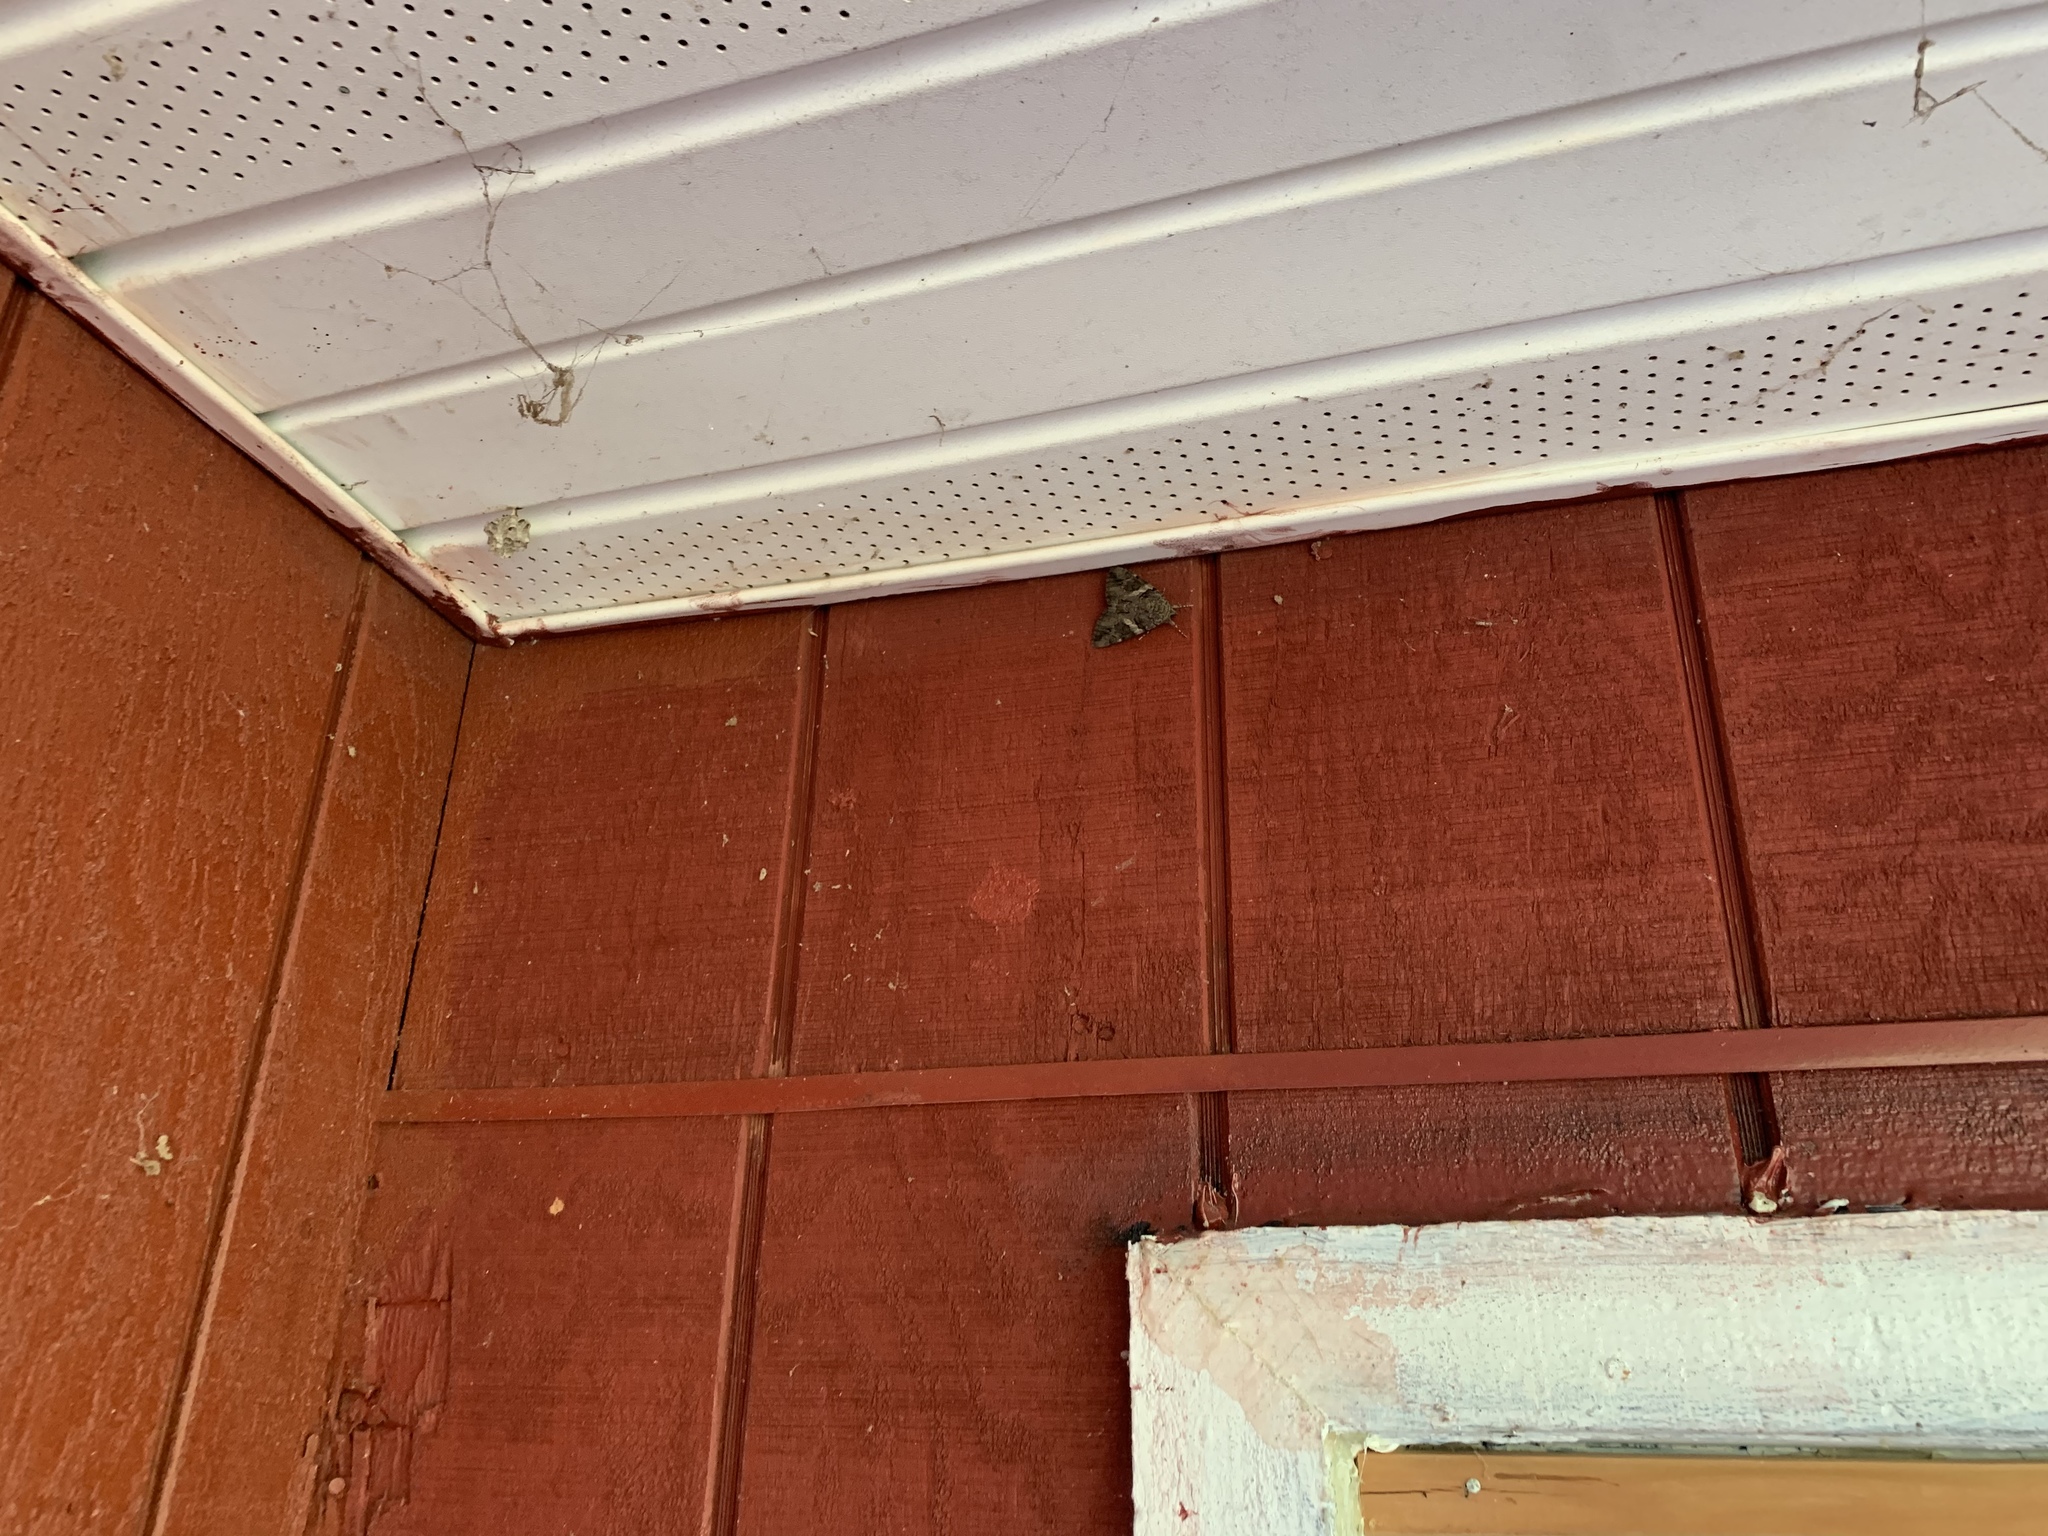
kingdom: Animalia
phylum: Arthropoda
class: Insecta
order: Lepidoptera
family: Erebidae
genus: Catocala
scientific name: Catocala piatrix
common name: The penitent underwing
